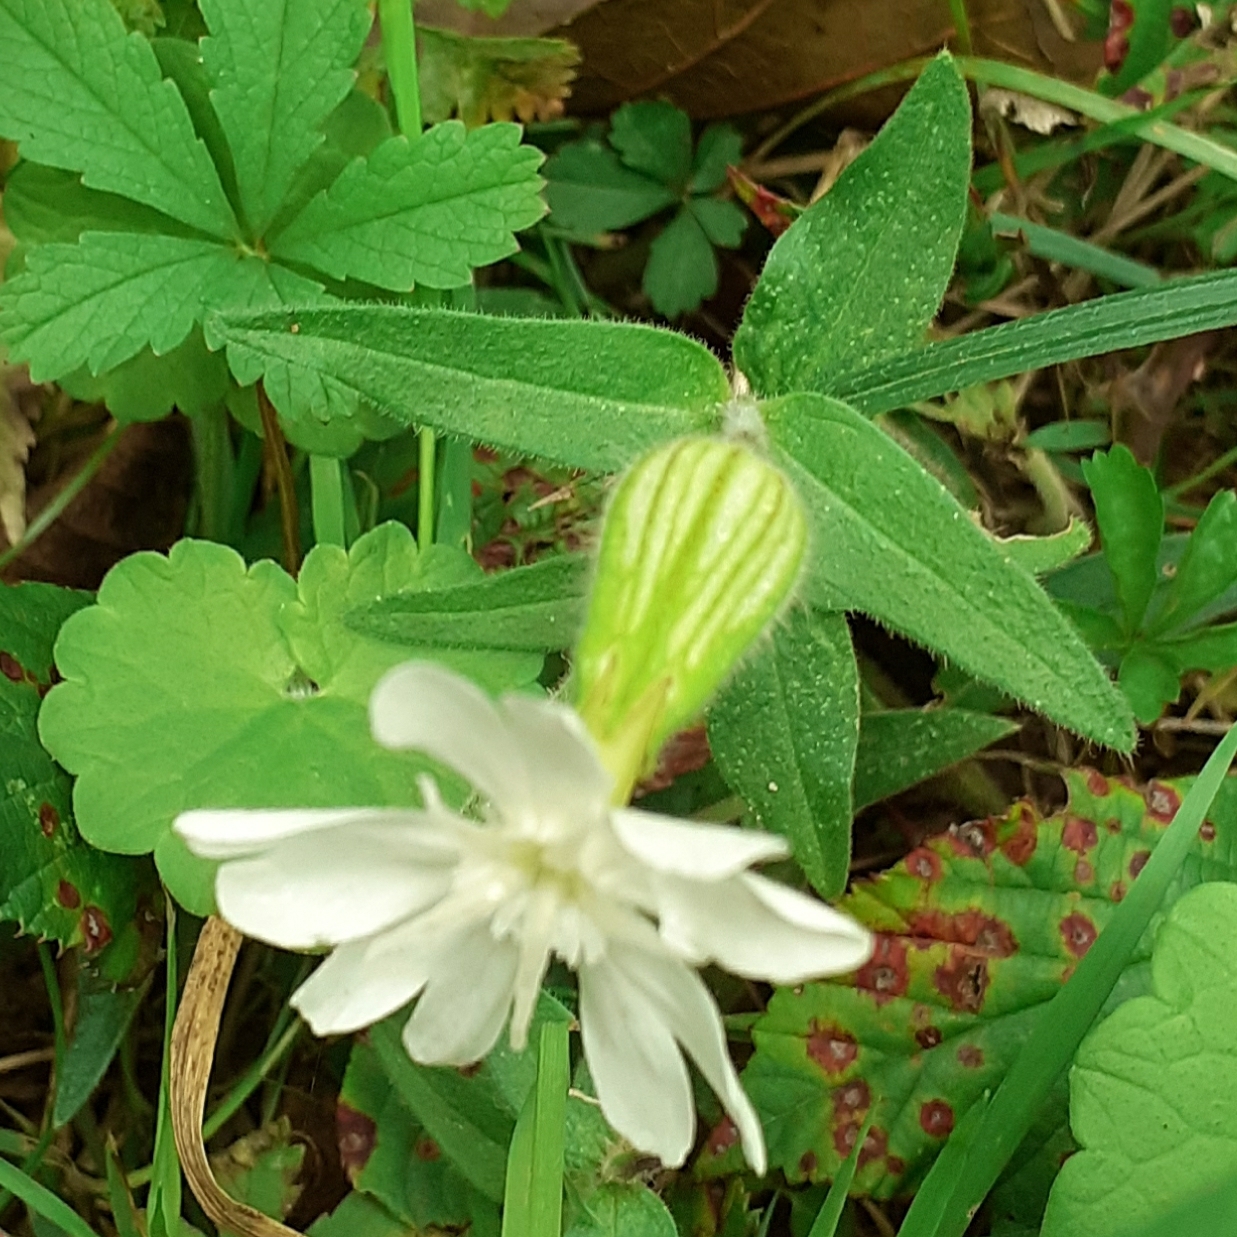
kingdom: Plantae
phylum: Tracheophyta
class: Magnoliopsida
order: Caryophyllales
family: Caryophyllaceae
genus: Silene
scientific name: Silene latifolia
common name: White campion
